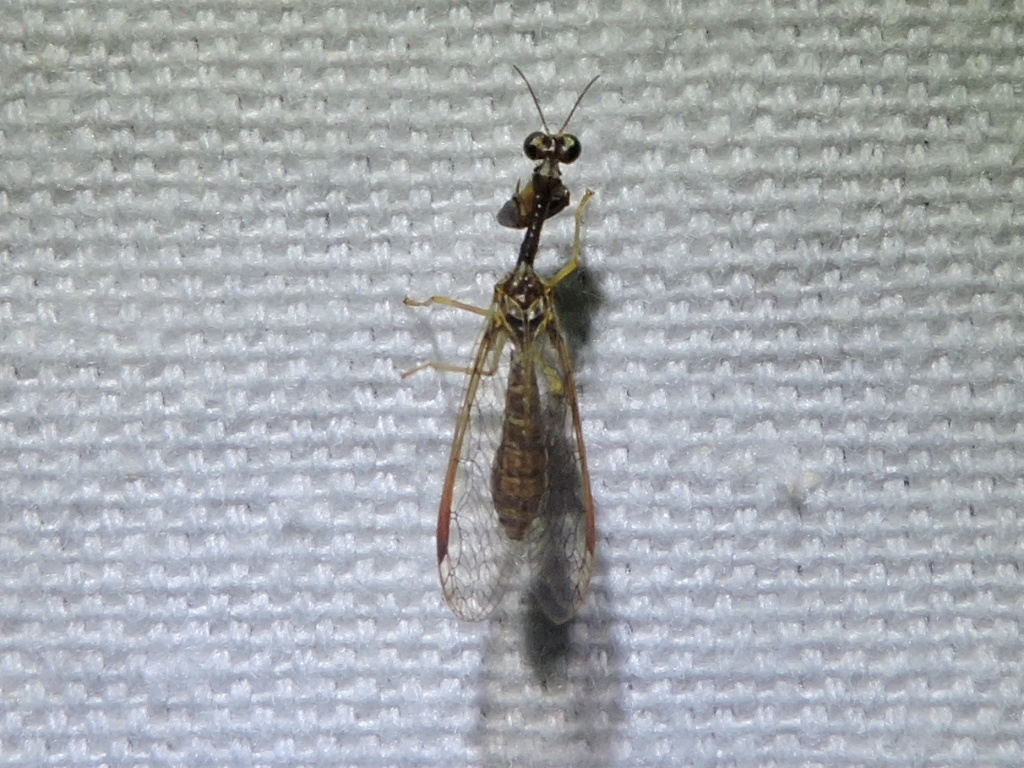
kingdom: Animalia
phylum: Arthropoda
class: Insecta
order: Neuroptera
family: Mantispidae
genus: Dicromantispa
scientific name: Dicromantispa sayi
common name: Say's mantidfly
